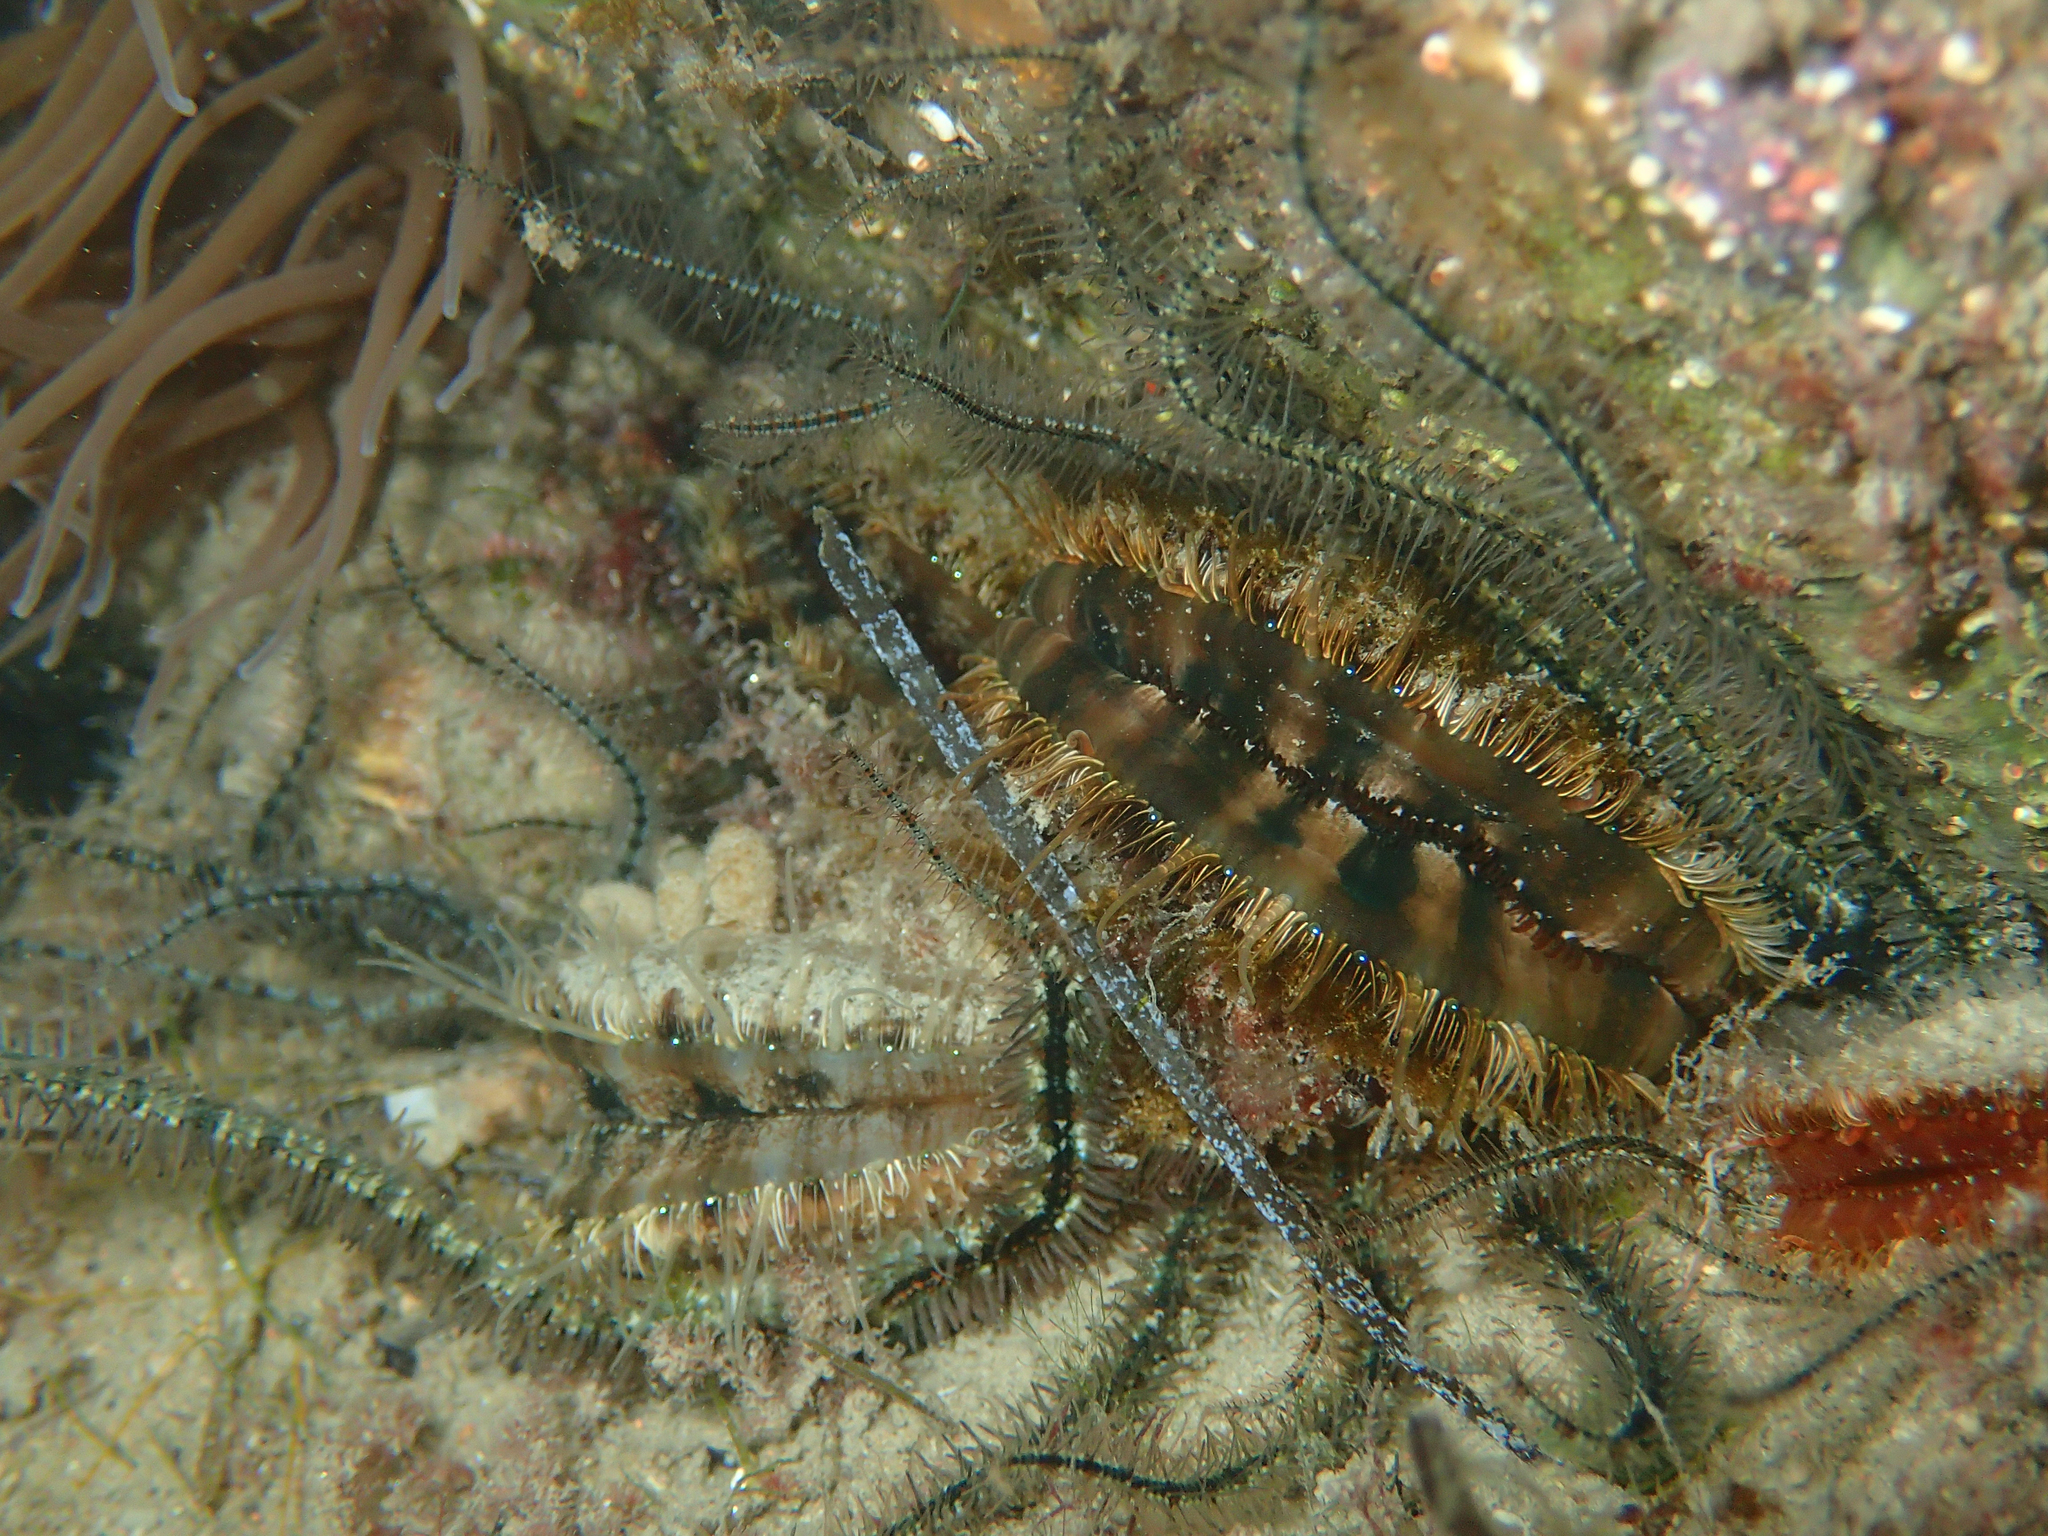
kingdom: Animalia
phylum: Mollusca
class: Bivalvia
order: Pectinida
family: Pectinidae
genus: Mimachlamys
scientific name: Mimachlamys varia
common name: Variegated scallop
